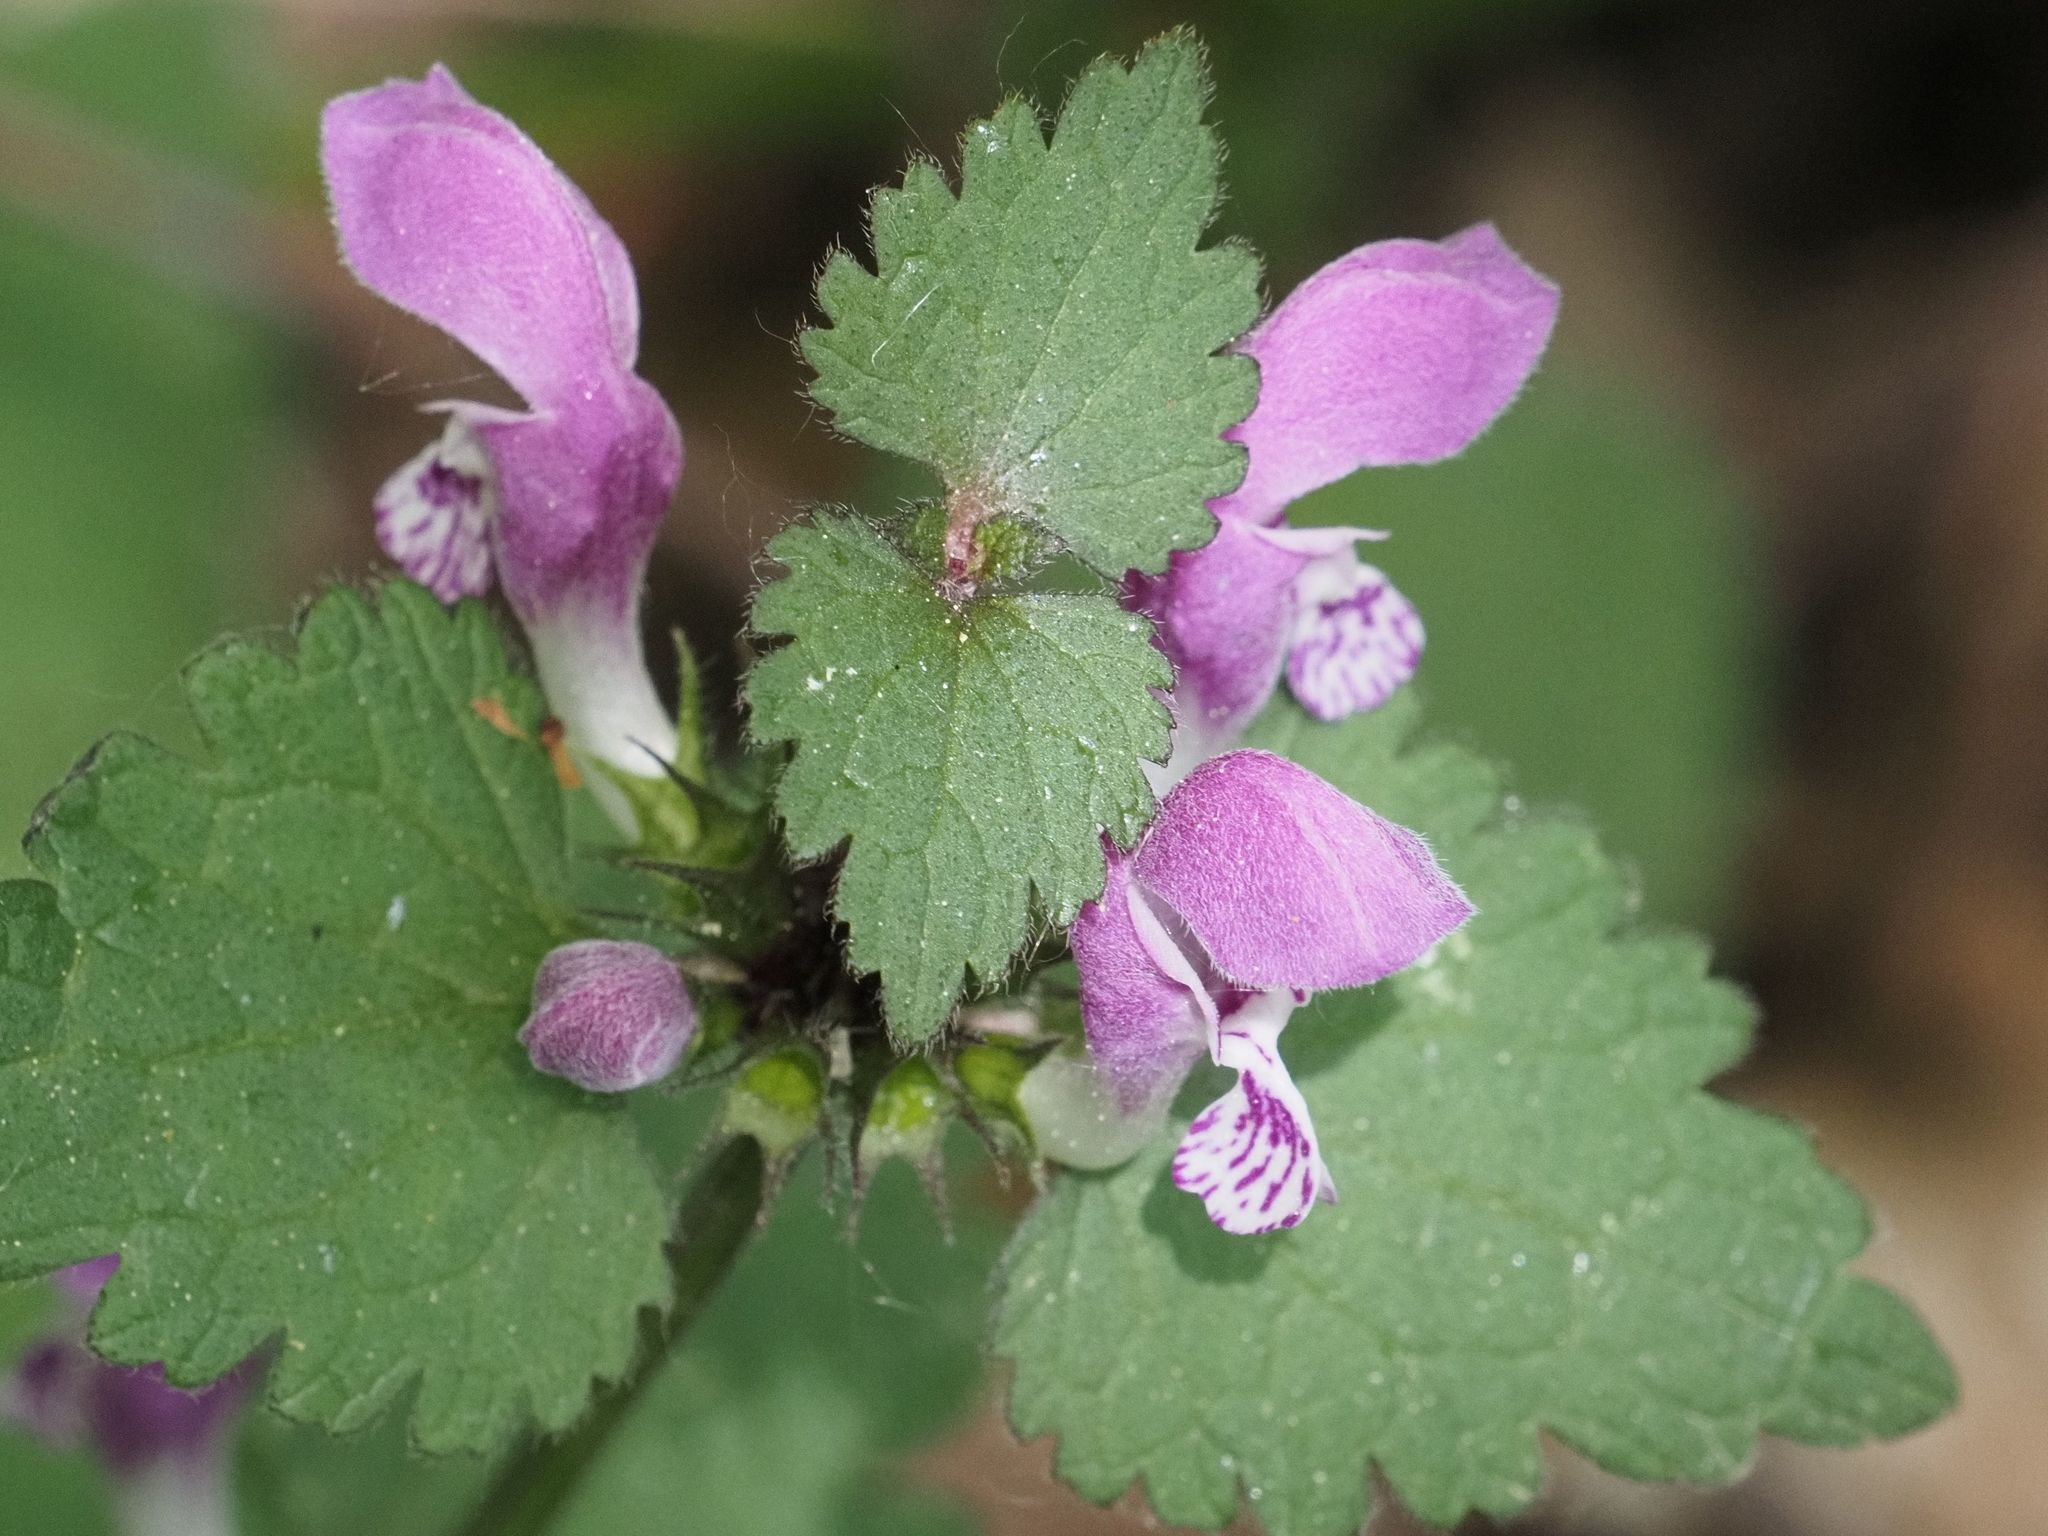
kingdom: Plantae
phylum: Tracheophyta
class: Magnoliopsida
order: Lamiales
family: Lamiaceae
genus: Lamium
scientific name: Lamium maculatum
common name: Spotted dead-nettle
